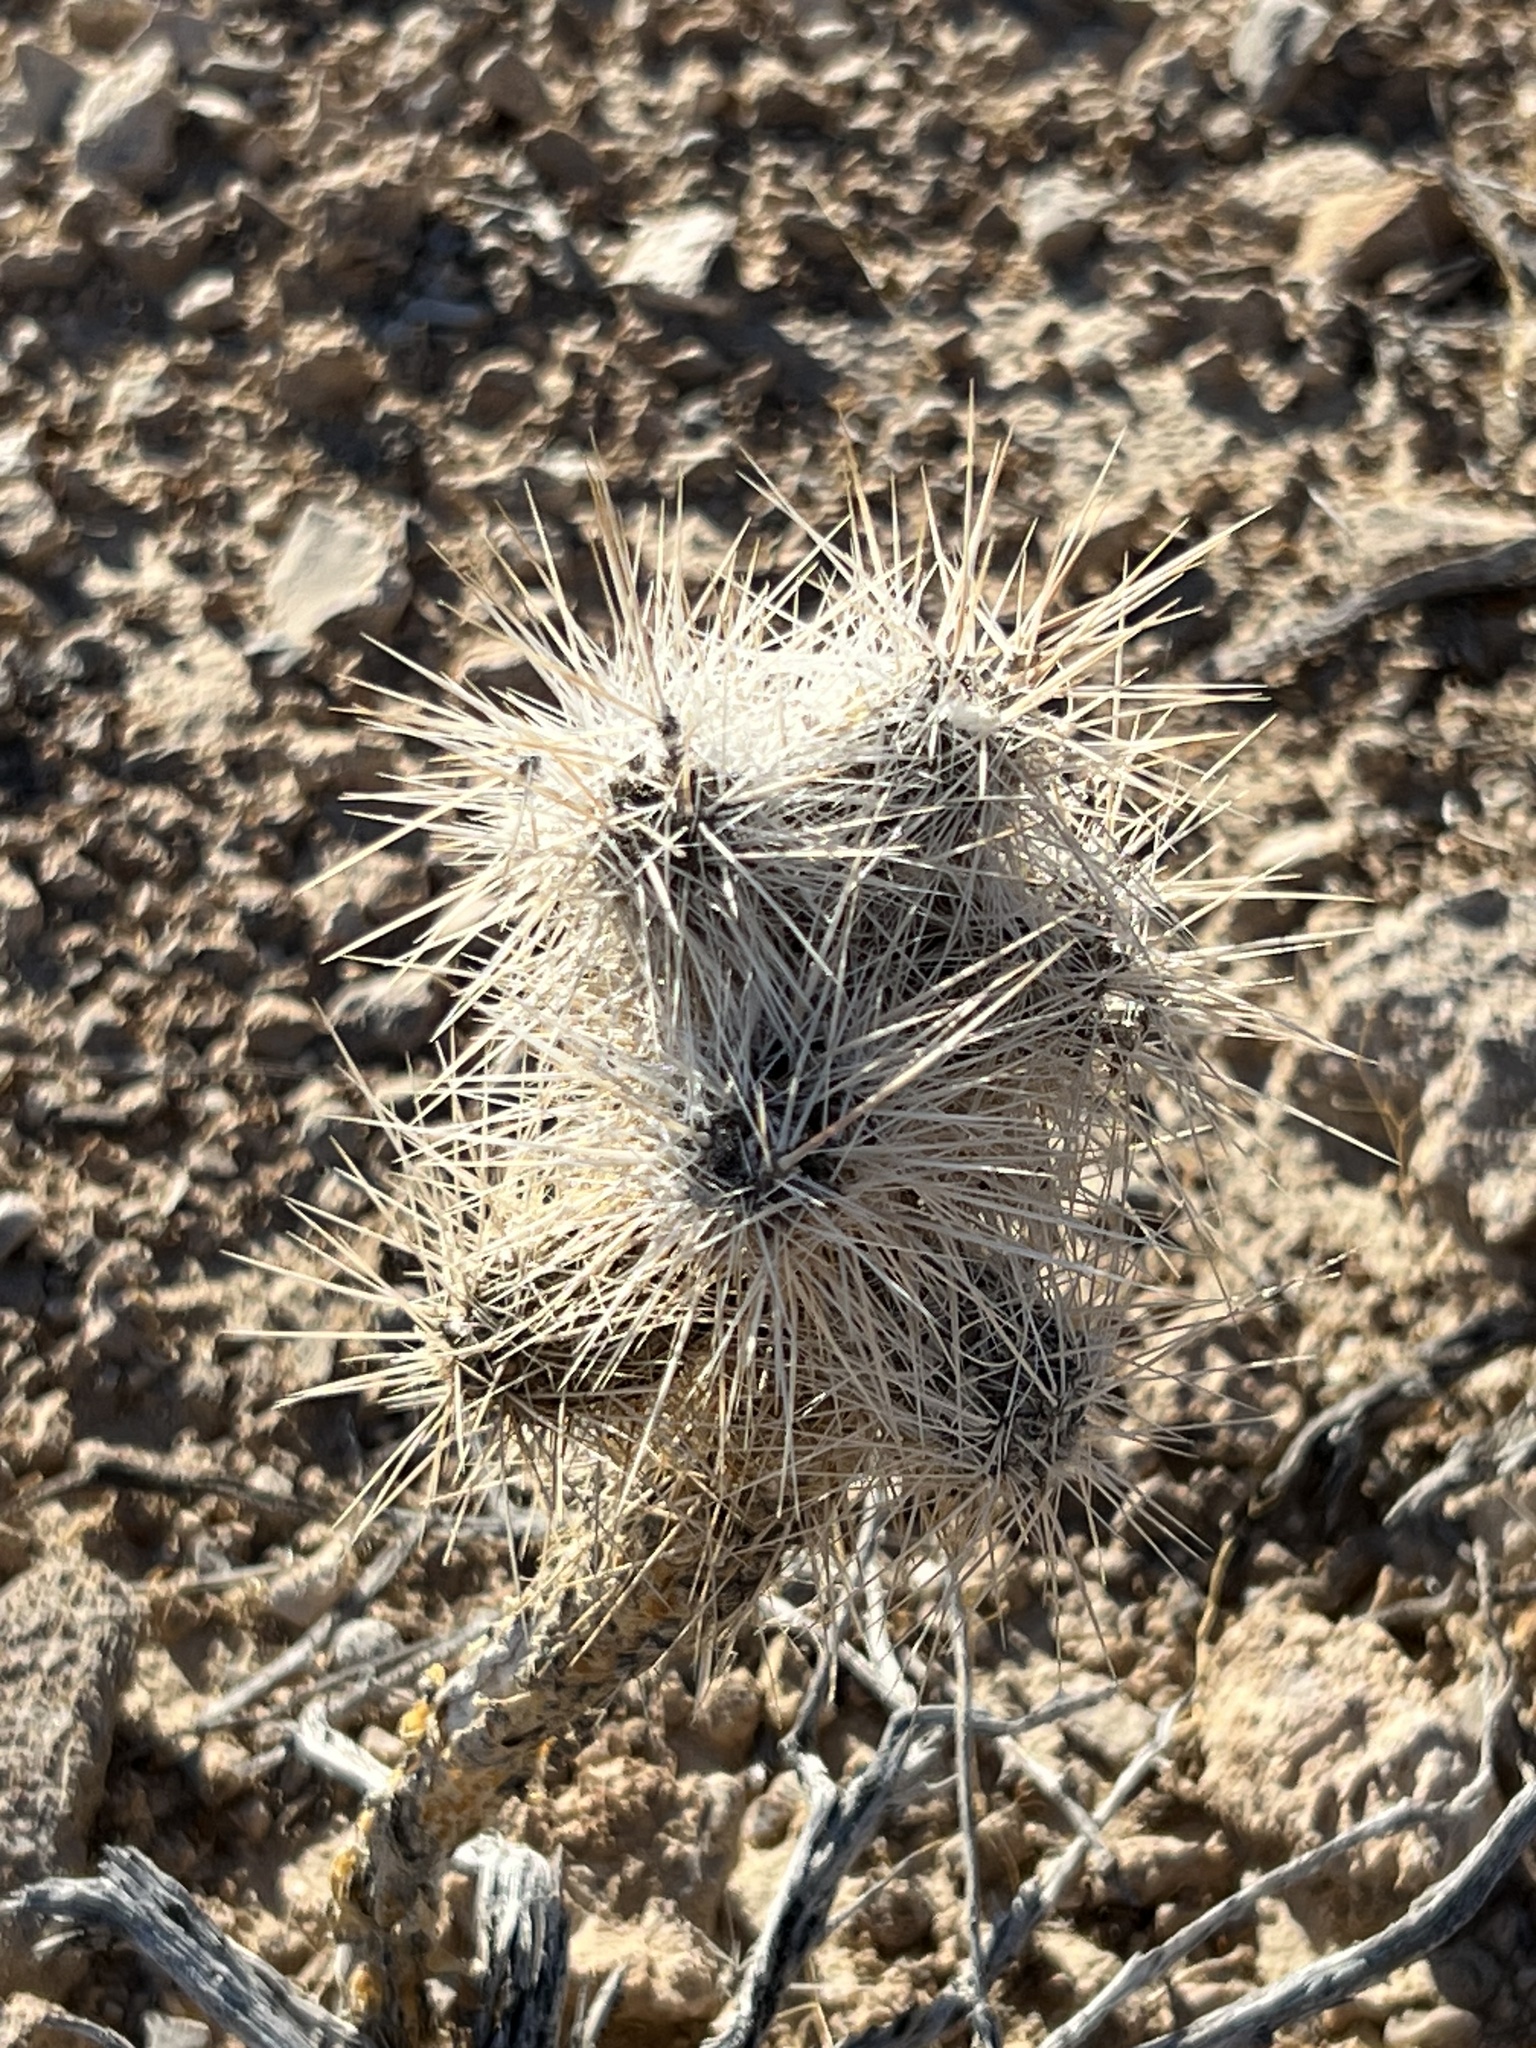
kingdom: Plantae
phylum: Tracheophyta
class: Magnoliopsida
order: Caryophyllales
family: Cactaceae
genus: Cylindropuntia
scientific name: Cylindropuntia echinocarpa
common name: Ground cholla
